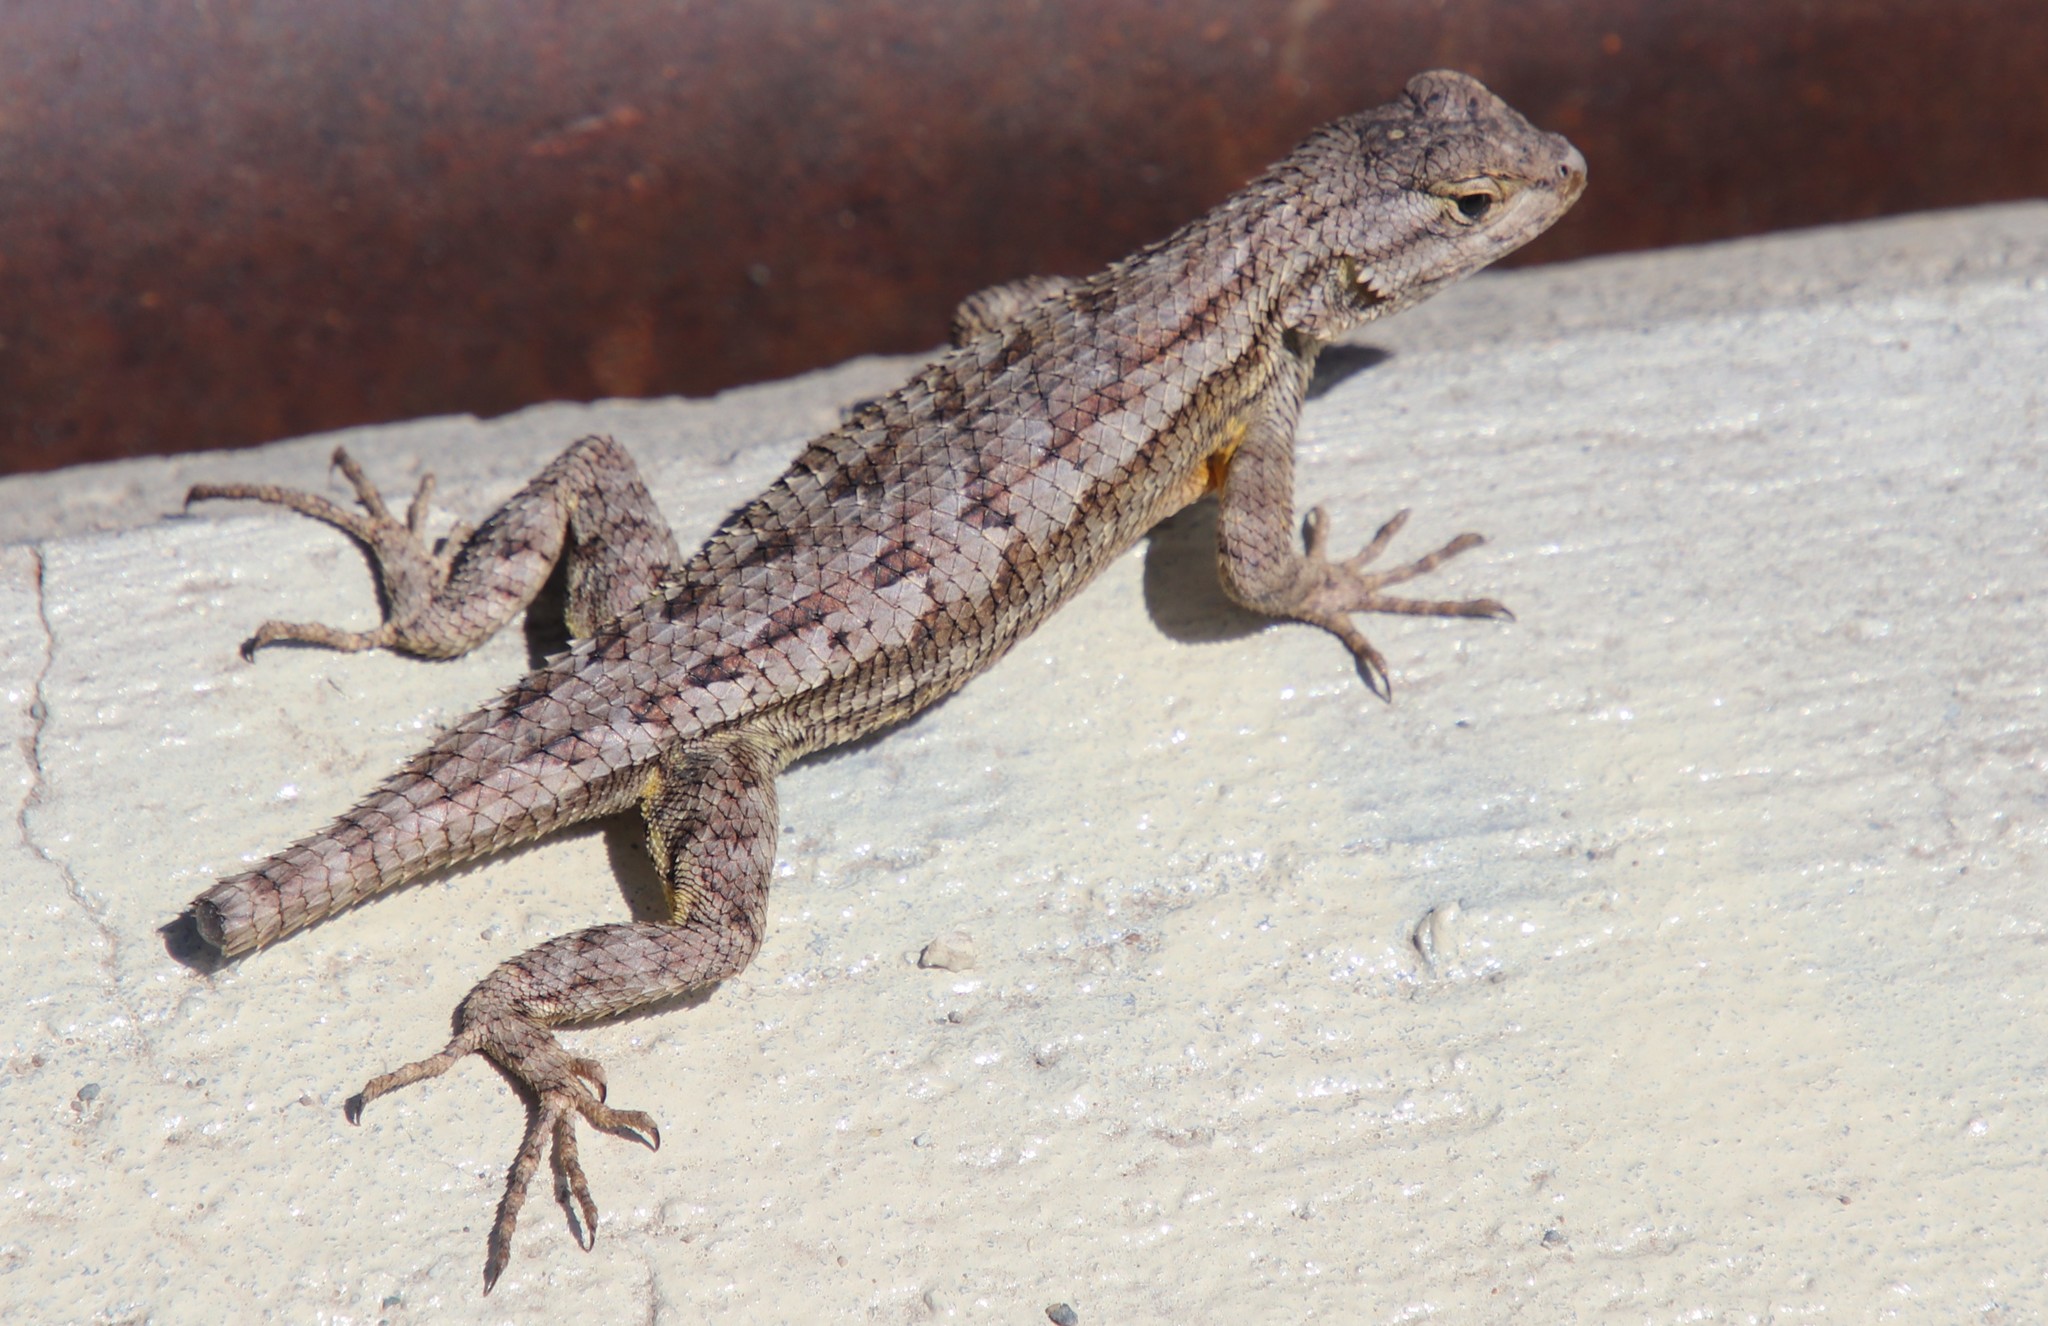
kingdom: Animalia
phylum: Chordata
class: Squamata
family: Phrynosomatidae
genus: Sceloporus
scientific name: Sceloporus occidentalis
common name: Western fence lizard
